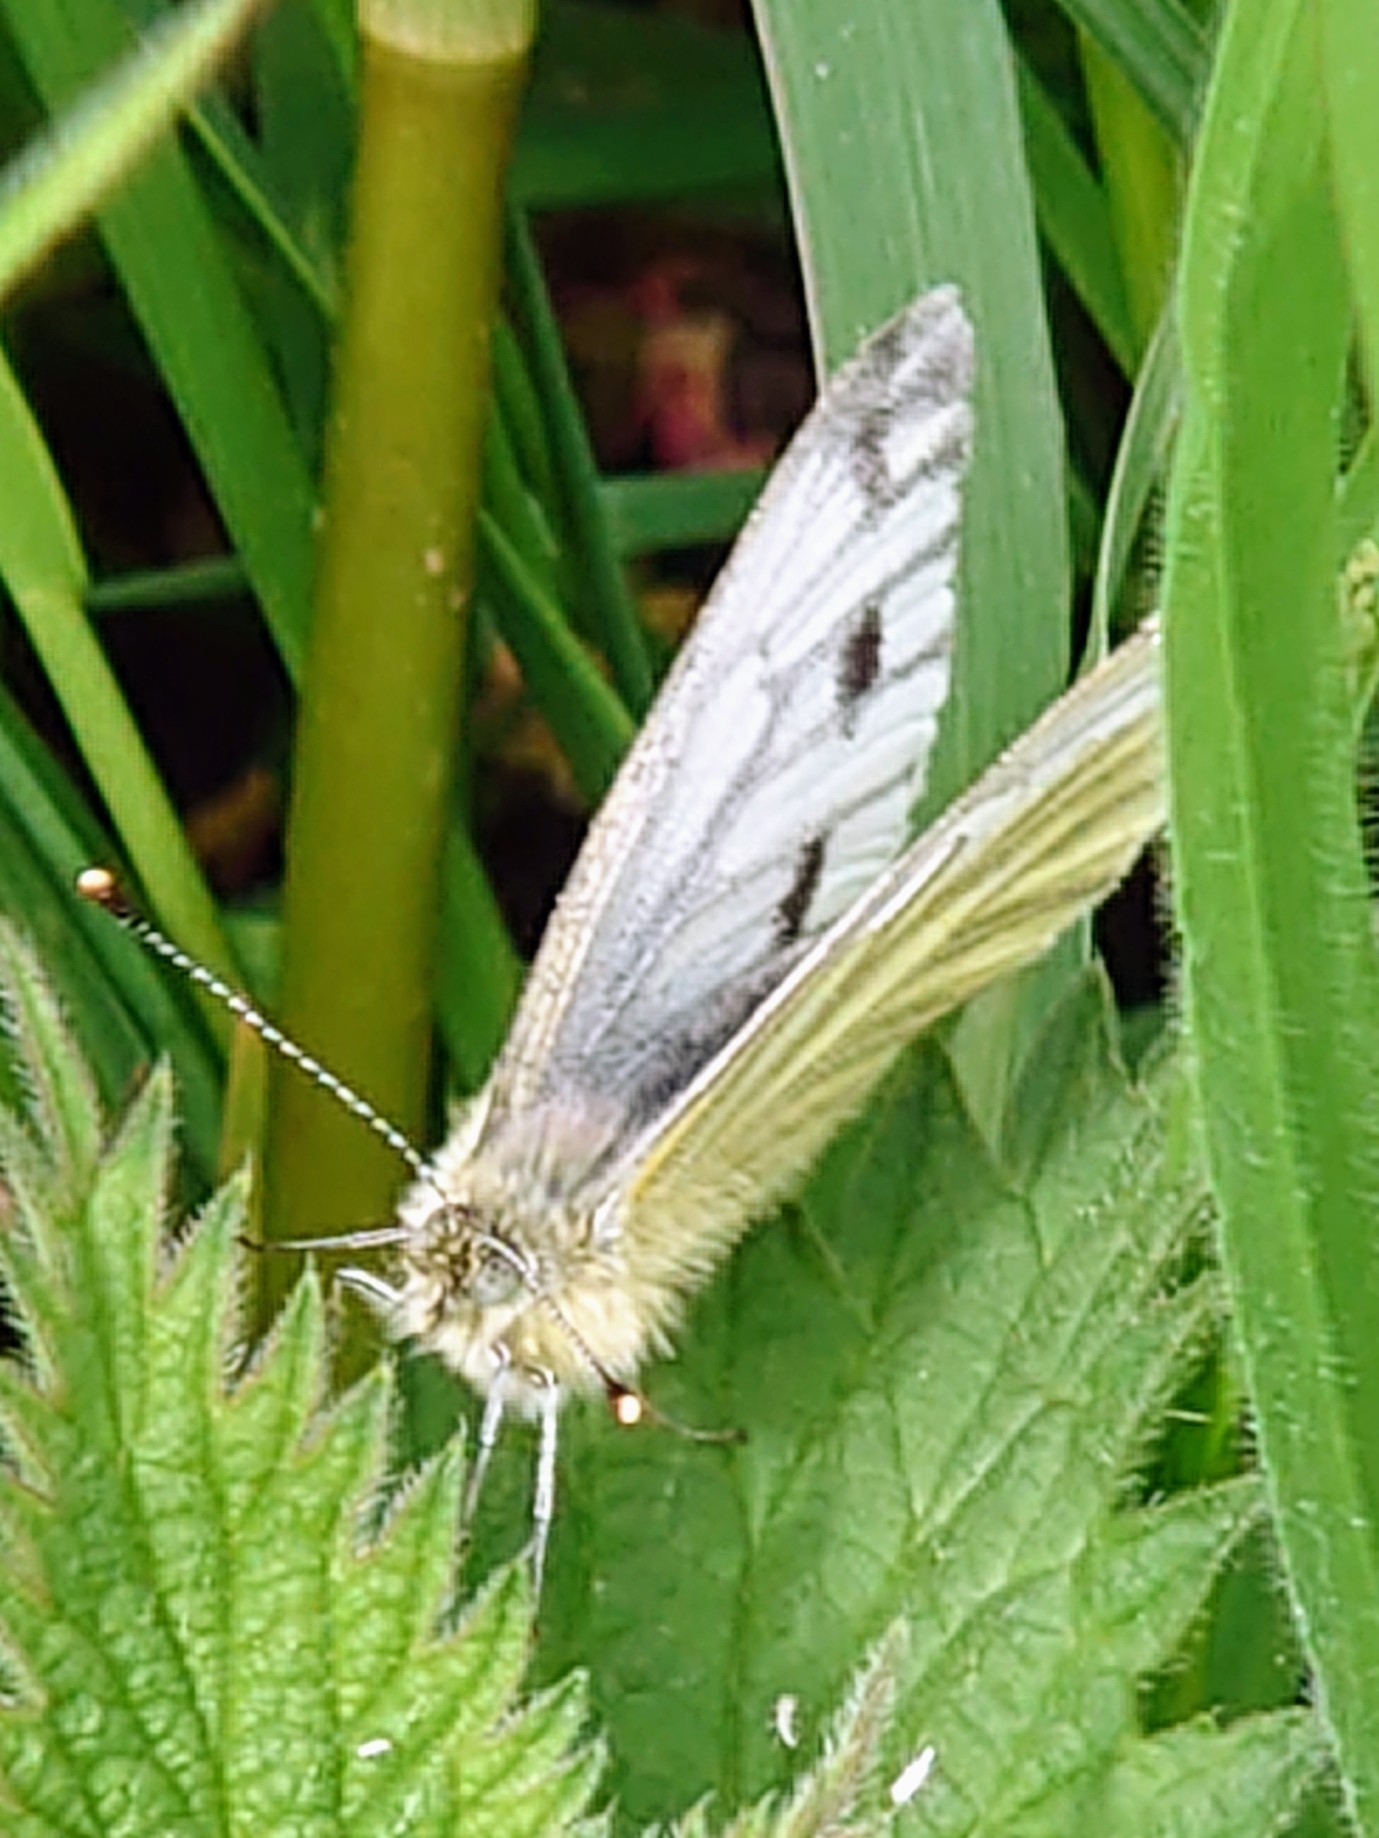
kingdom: Animalia
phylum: Arthropoda
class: Insecta
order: Lepidoptera
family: Pieridae
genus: Pieris
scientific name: Pieris napi
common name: Green-veined white
